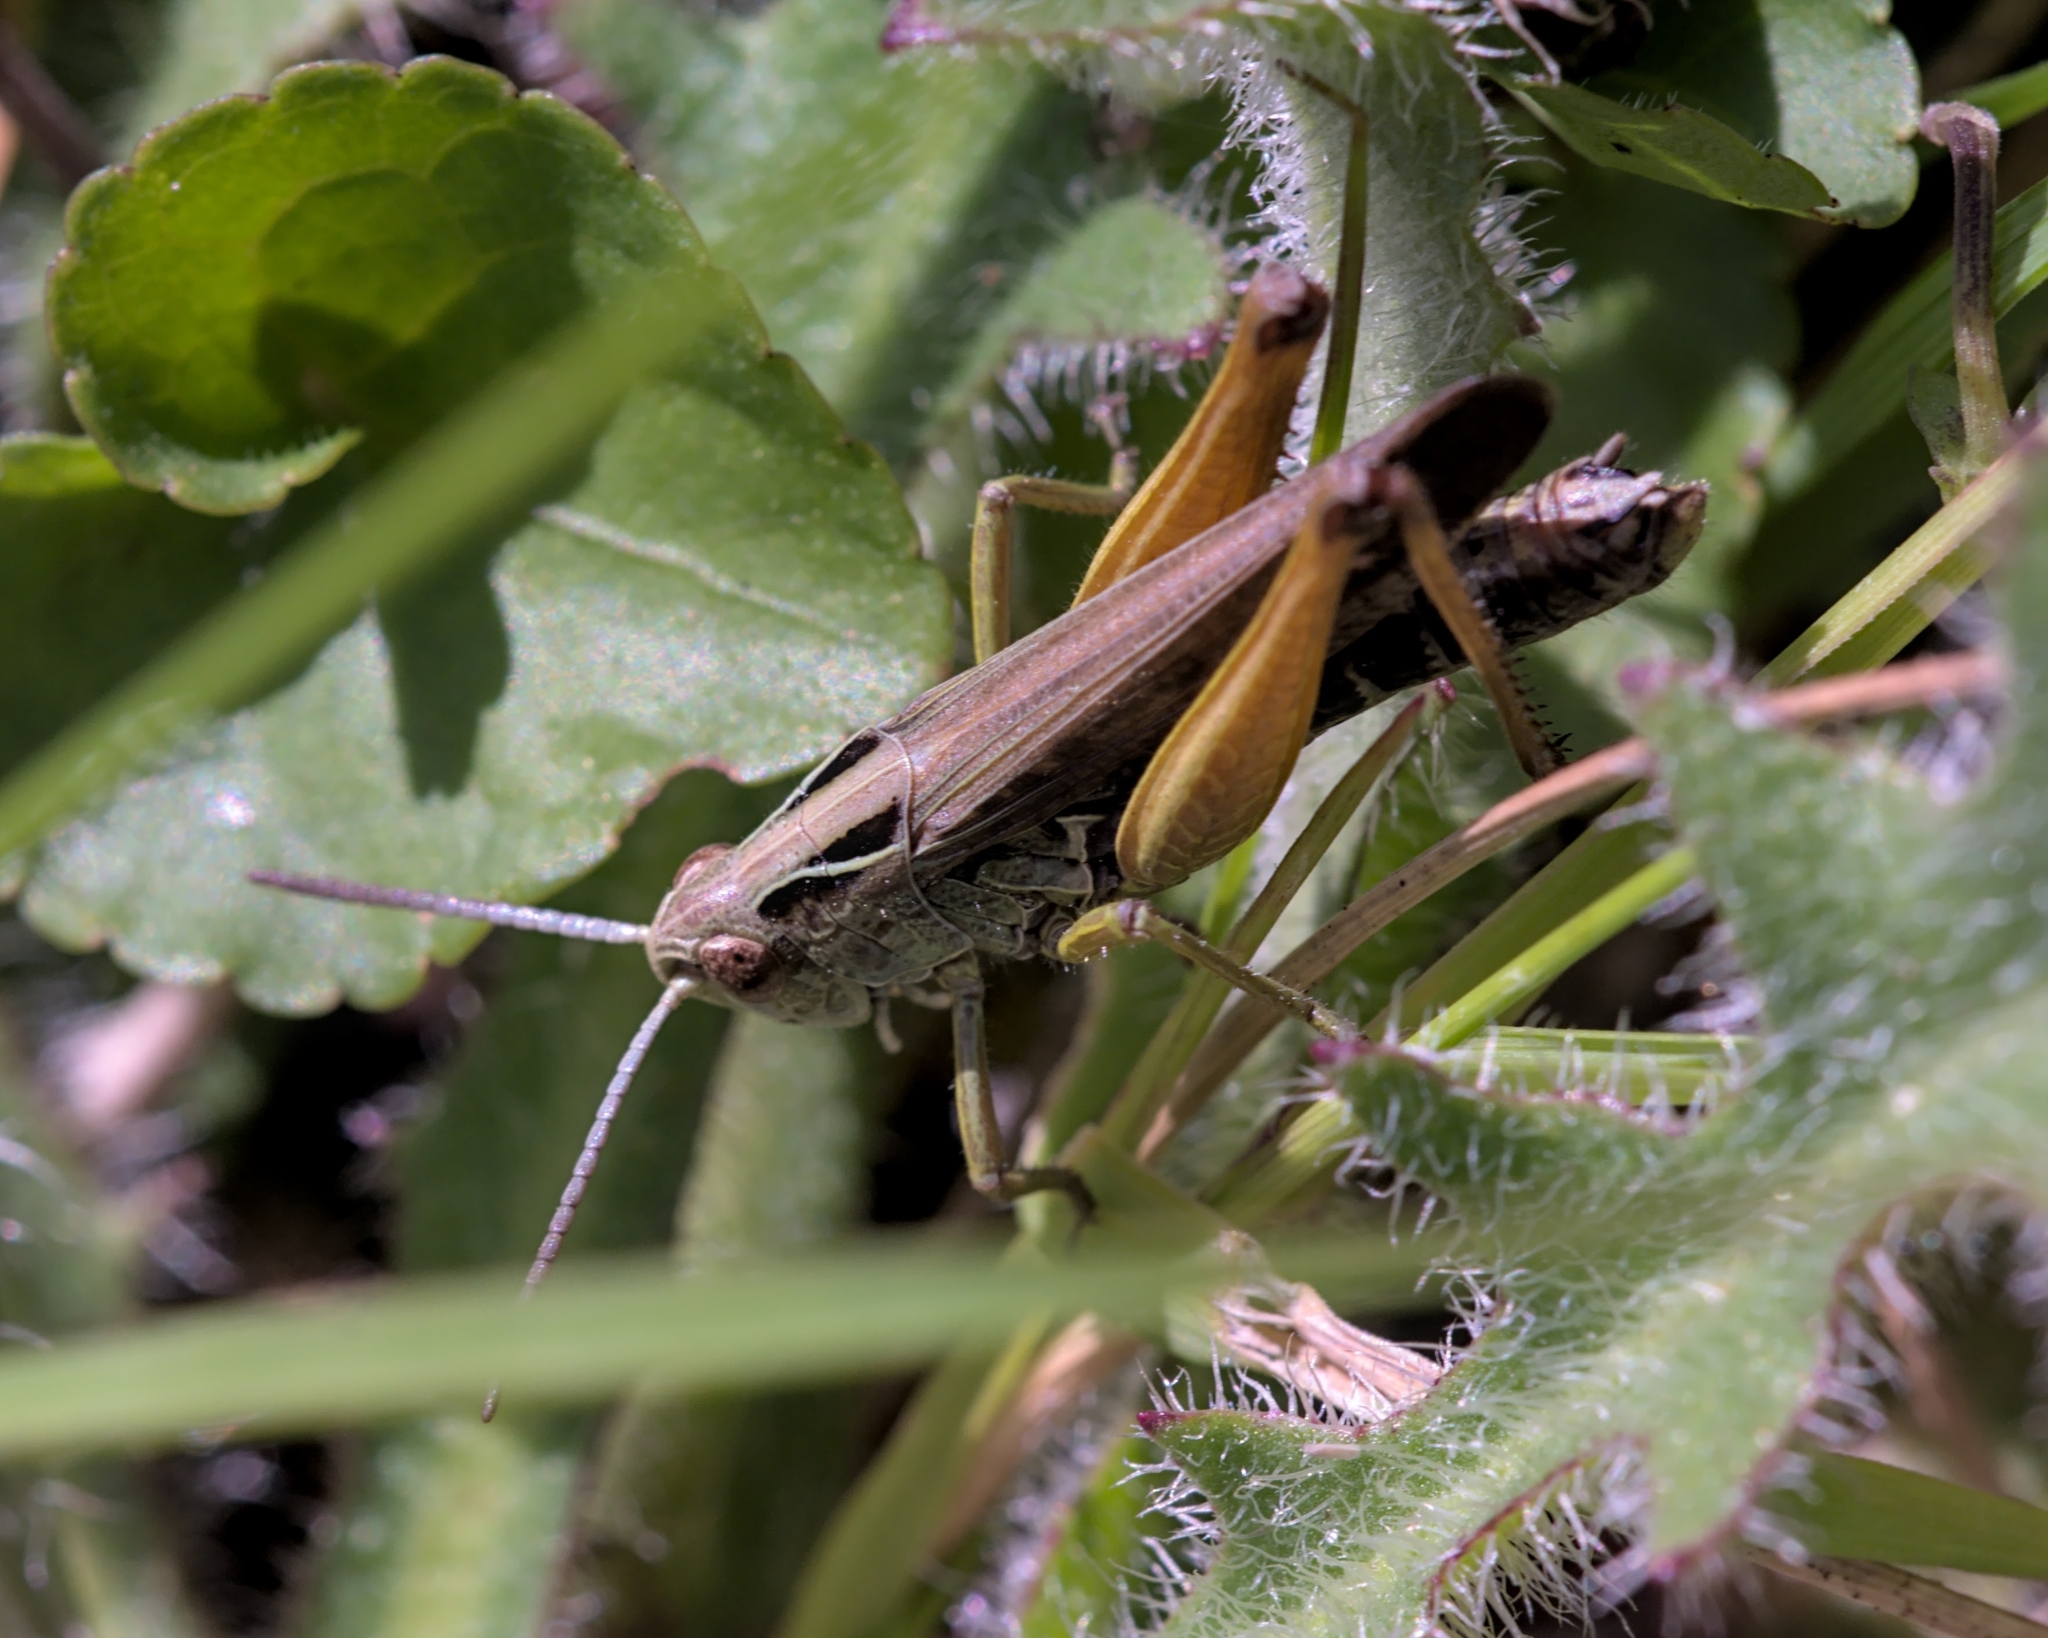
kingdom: Animalia
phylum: Arthropoda
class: Insecta
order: Orthoptera
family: Acrididae
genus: Omocestus
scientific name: Omocestus viridulus
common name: Common green grasshopper
